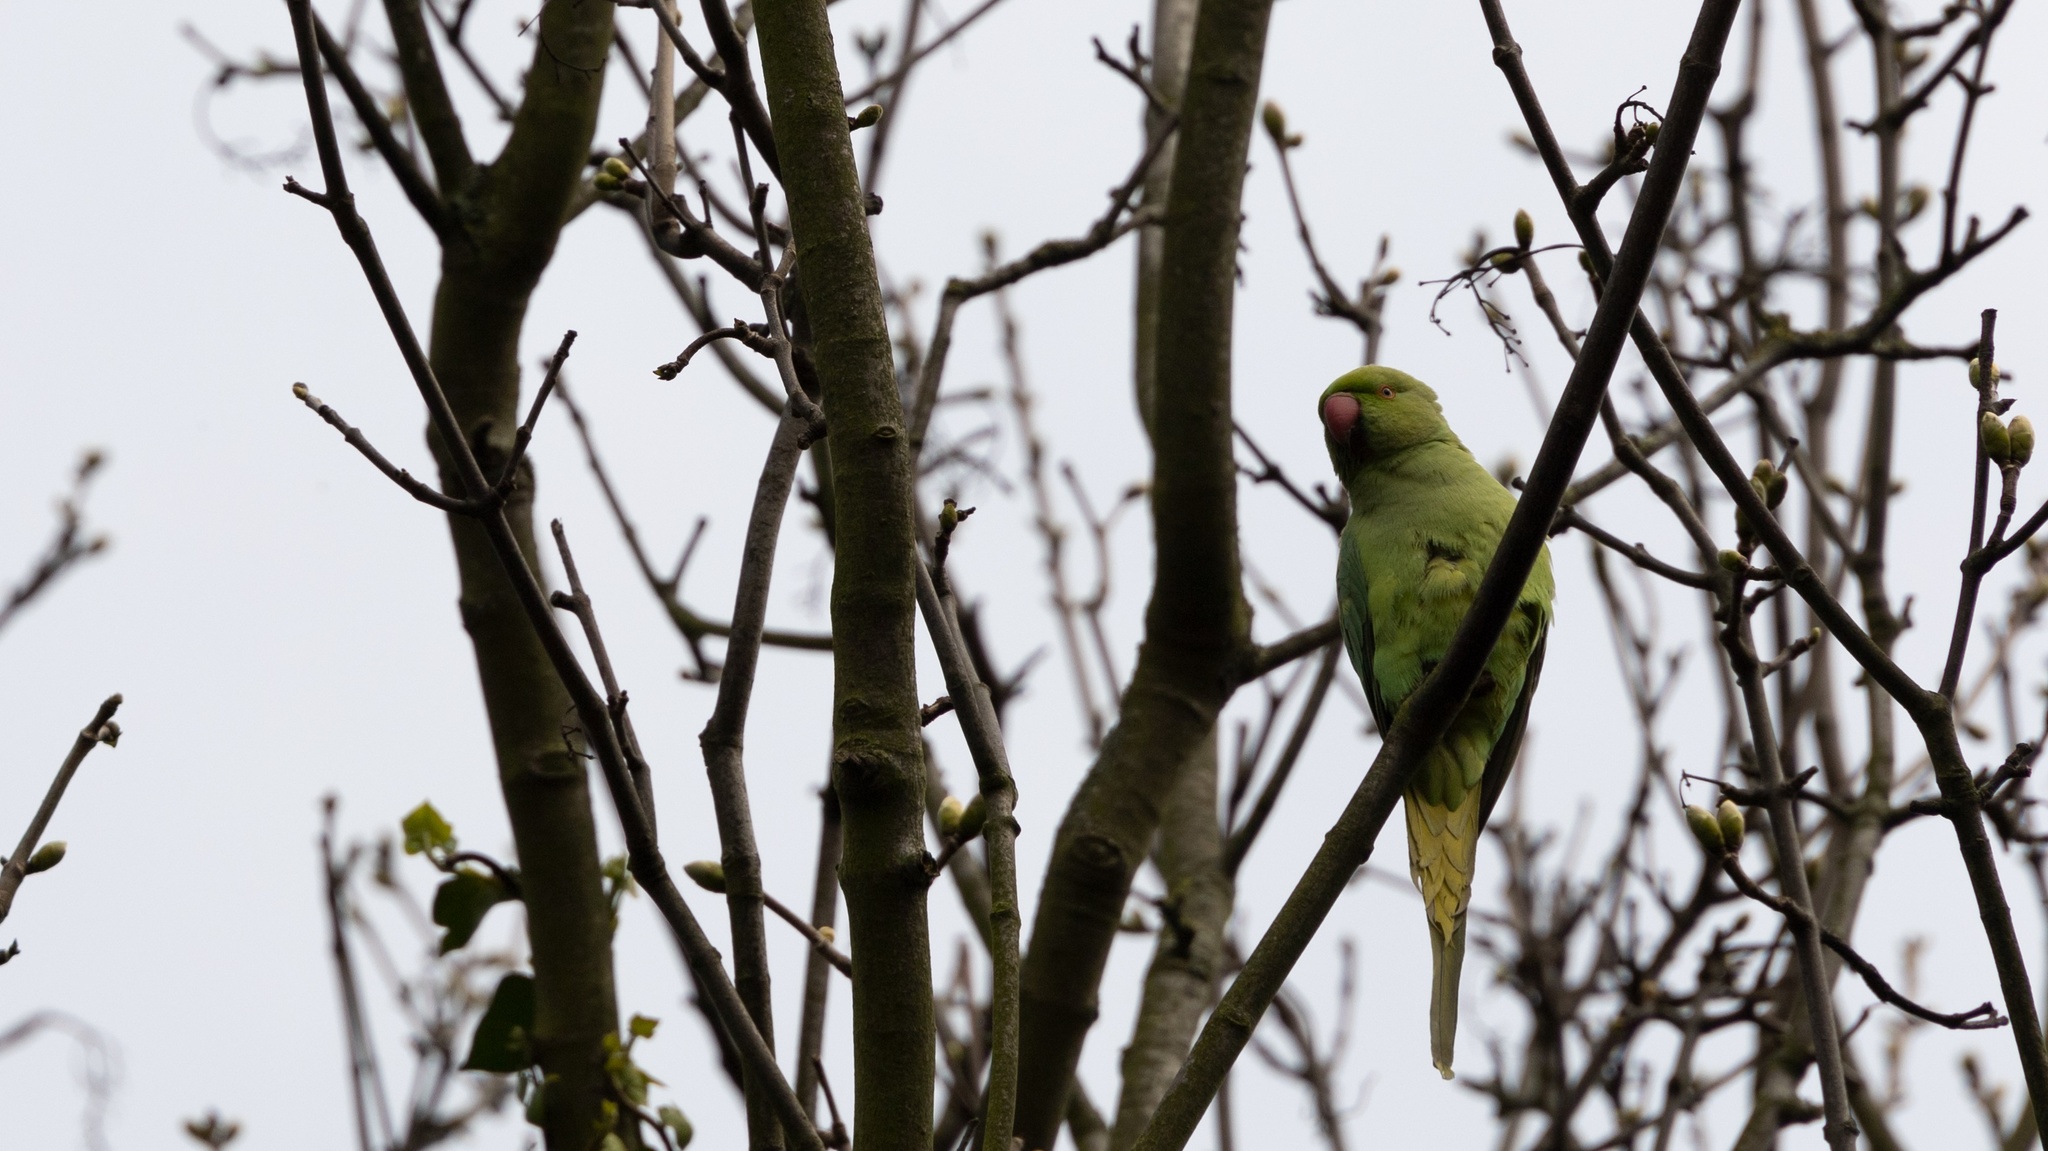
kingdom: Animalia
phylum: Chordata
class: Aves
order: Psittaciformes
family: Psittacidae
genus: Psittacula
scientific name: Psittacula krameri
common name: Rose-ringed parakeet
